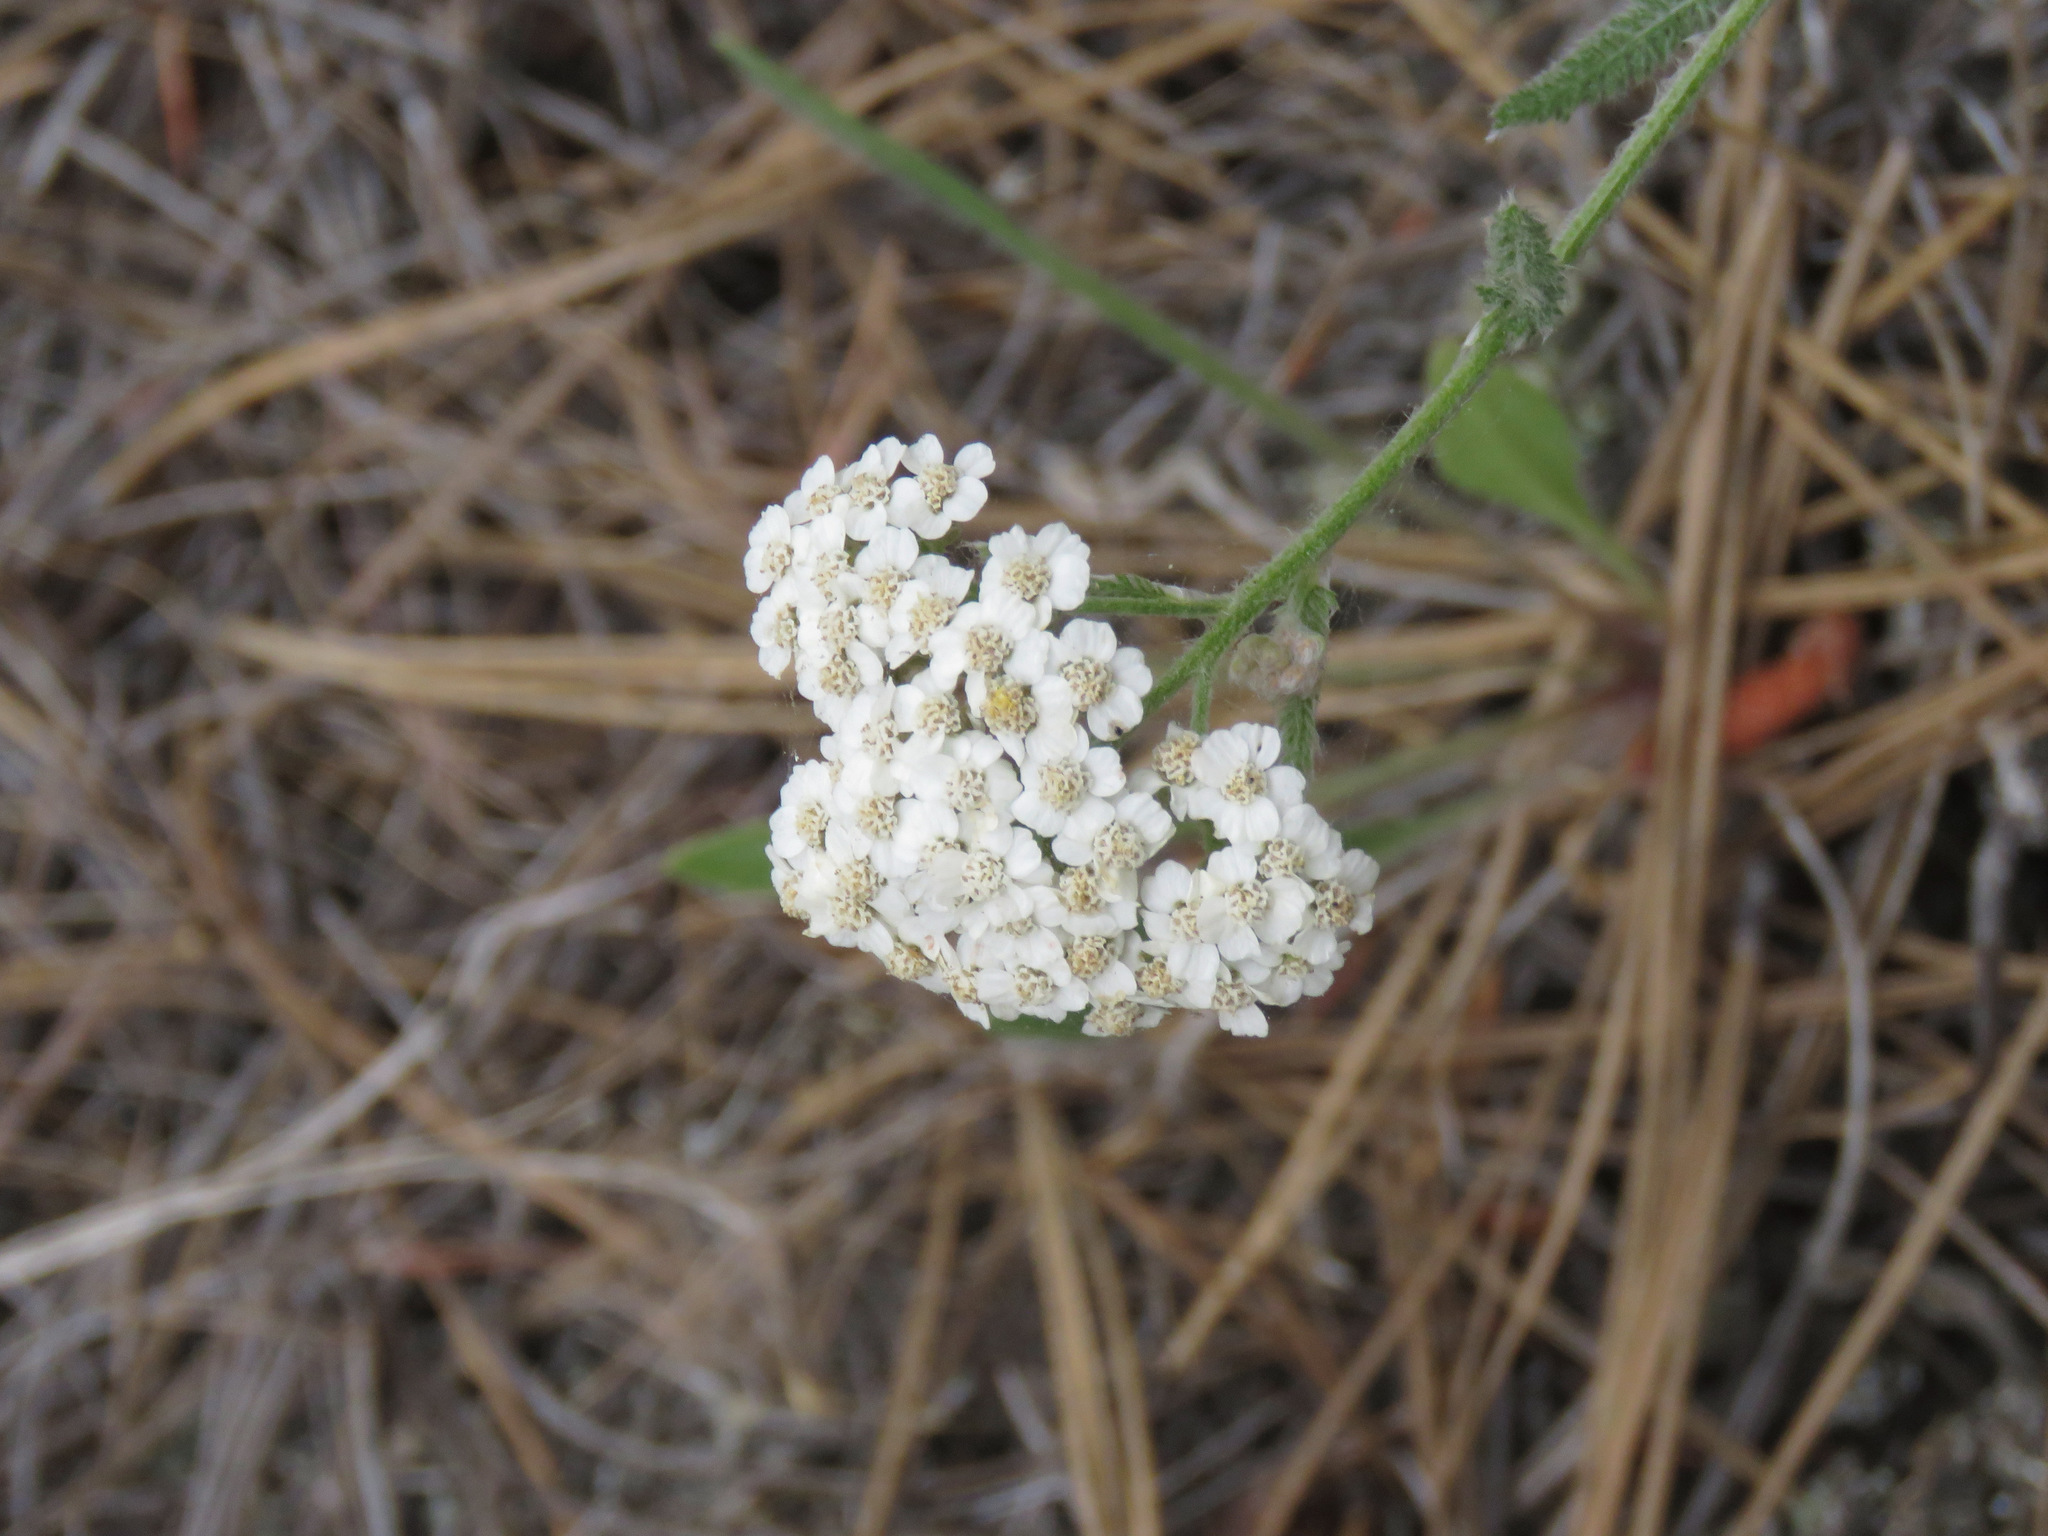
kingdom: Plantae
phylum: Tracheophyta
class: Magnoliopsida
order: Asterales
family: Asteraceae
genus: Achillea
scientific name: Achillea millefolium
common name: Yarrow
